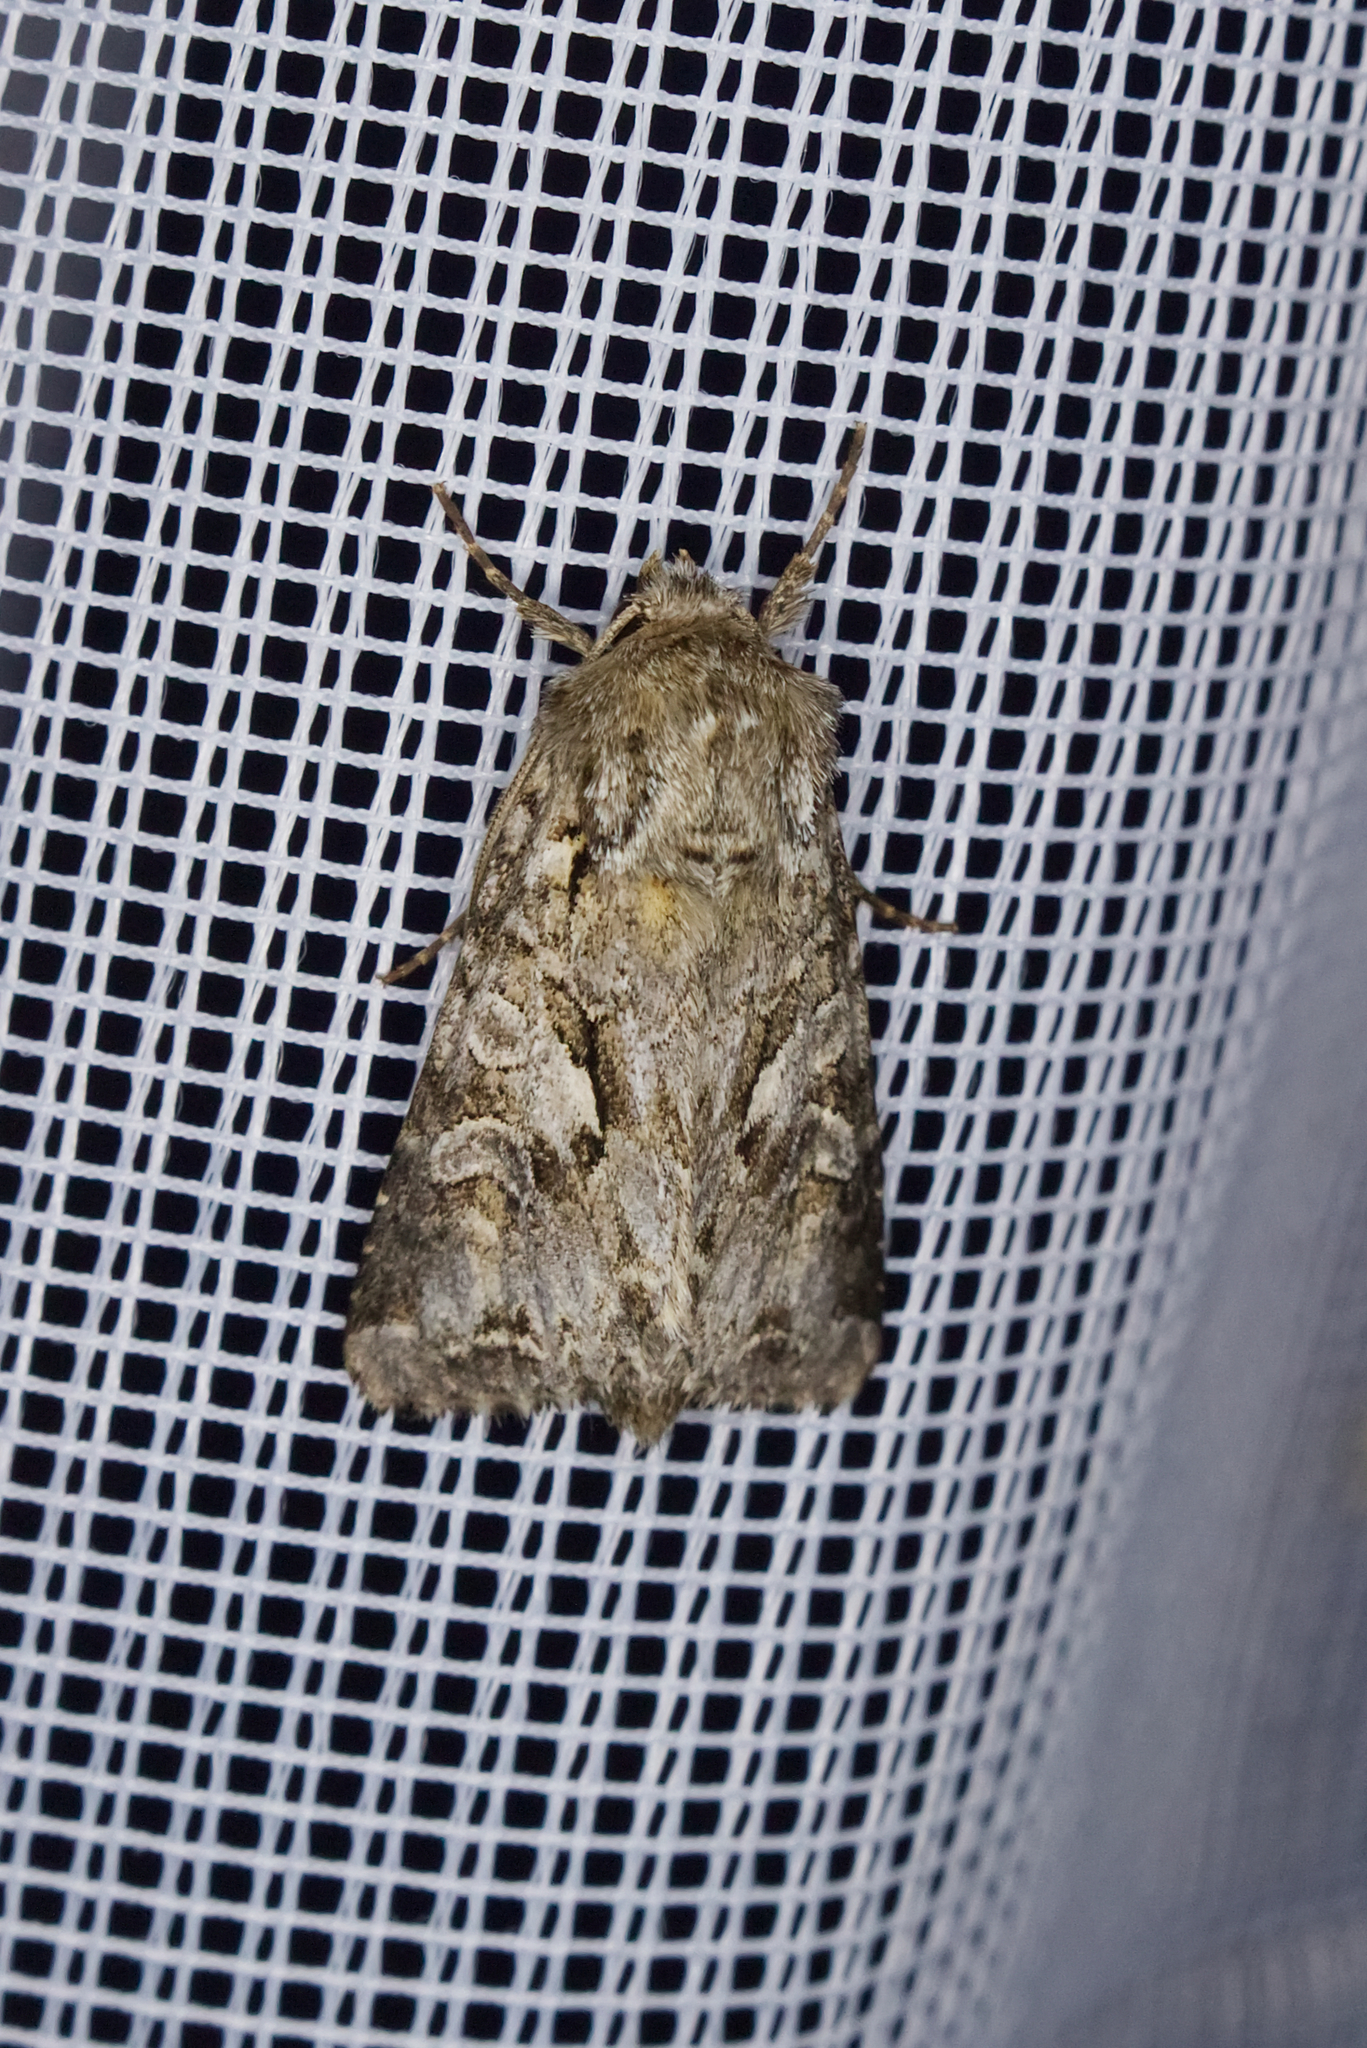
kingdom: Animalia
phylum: Arthropoda
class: Insecta
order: Lepidoptera
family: Noctuidae
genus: Hada
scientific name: Hada plebeja
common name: Shears
